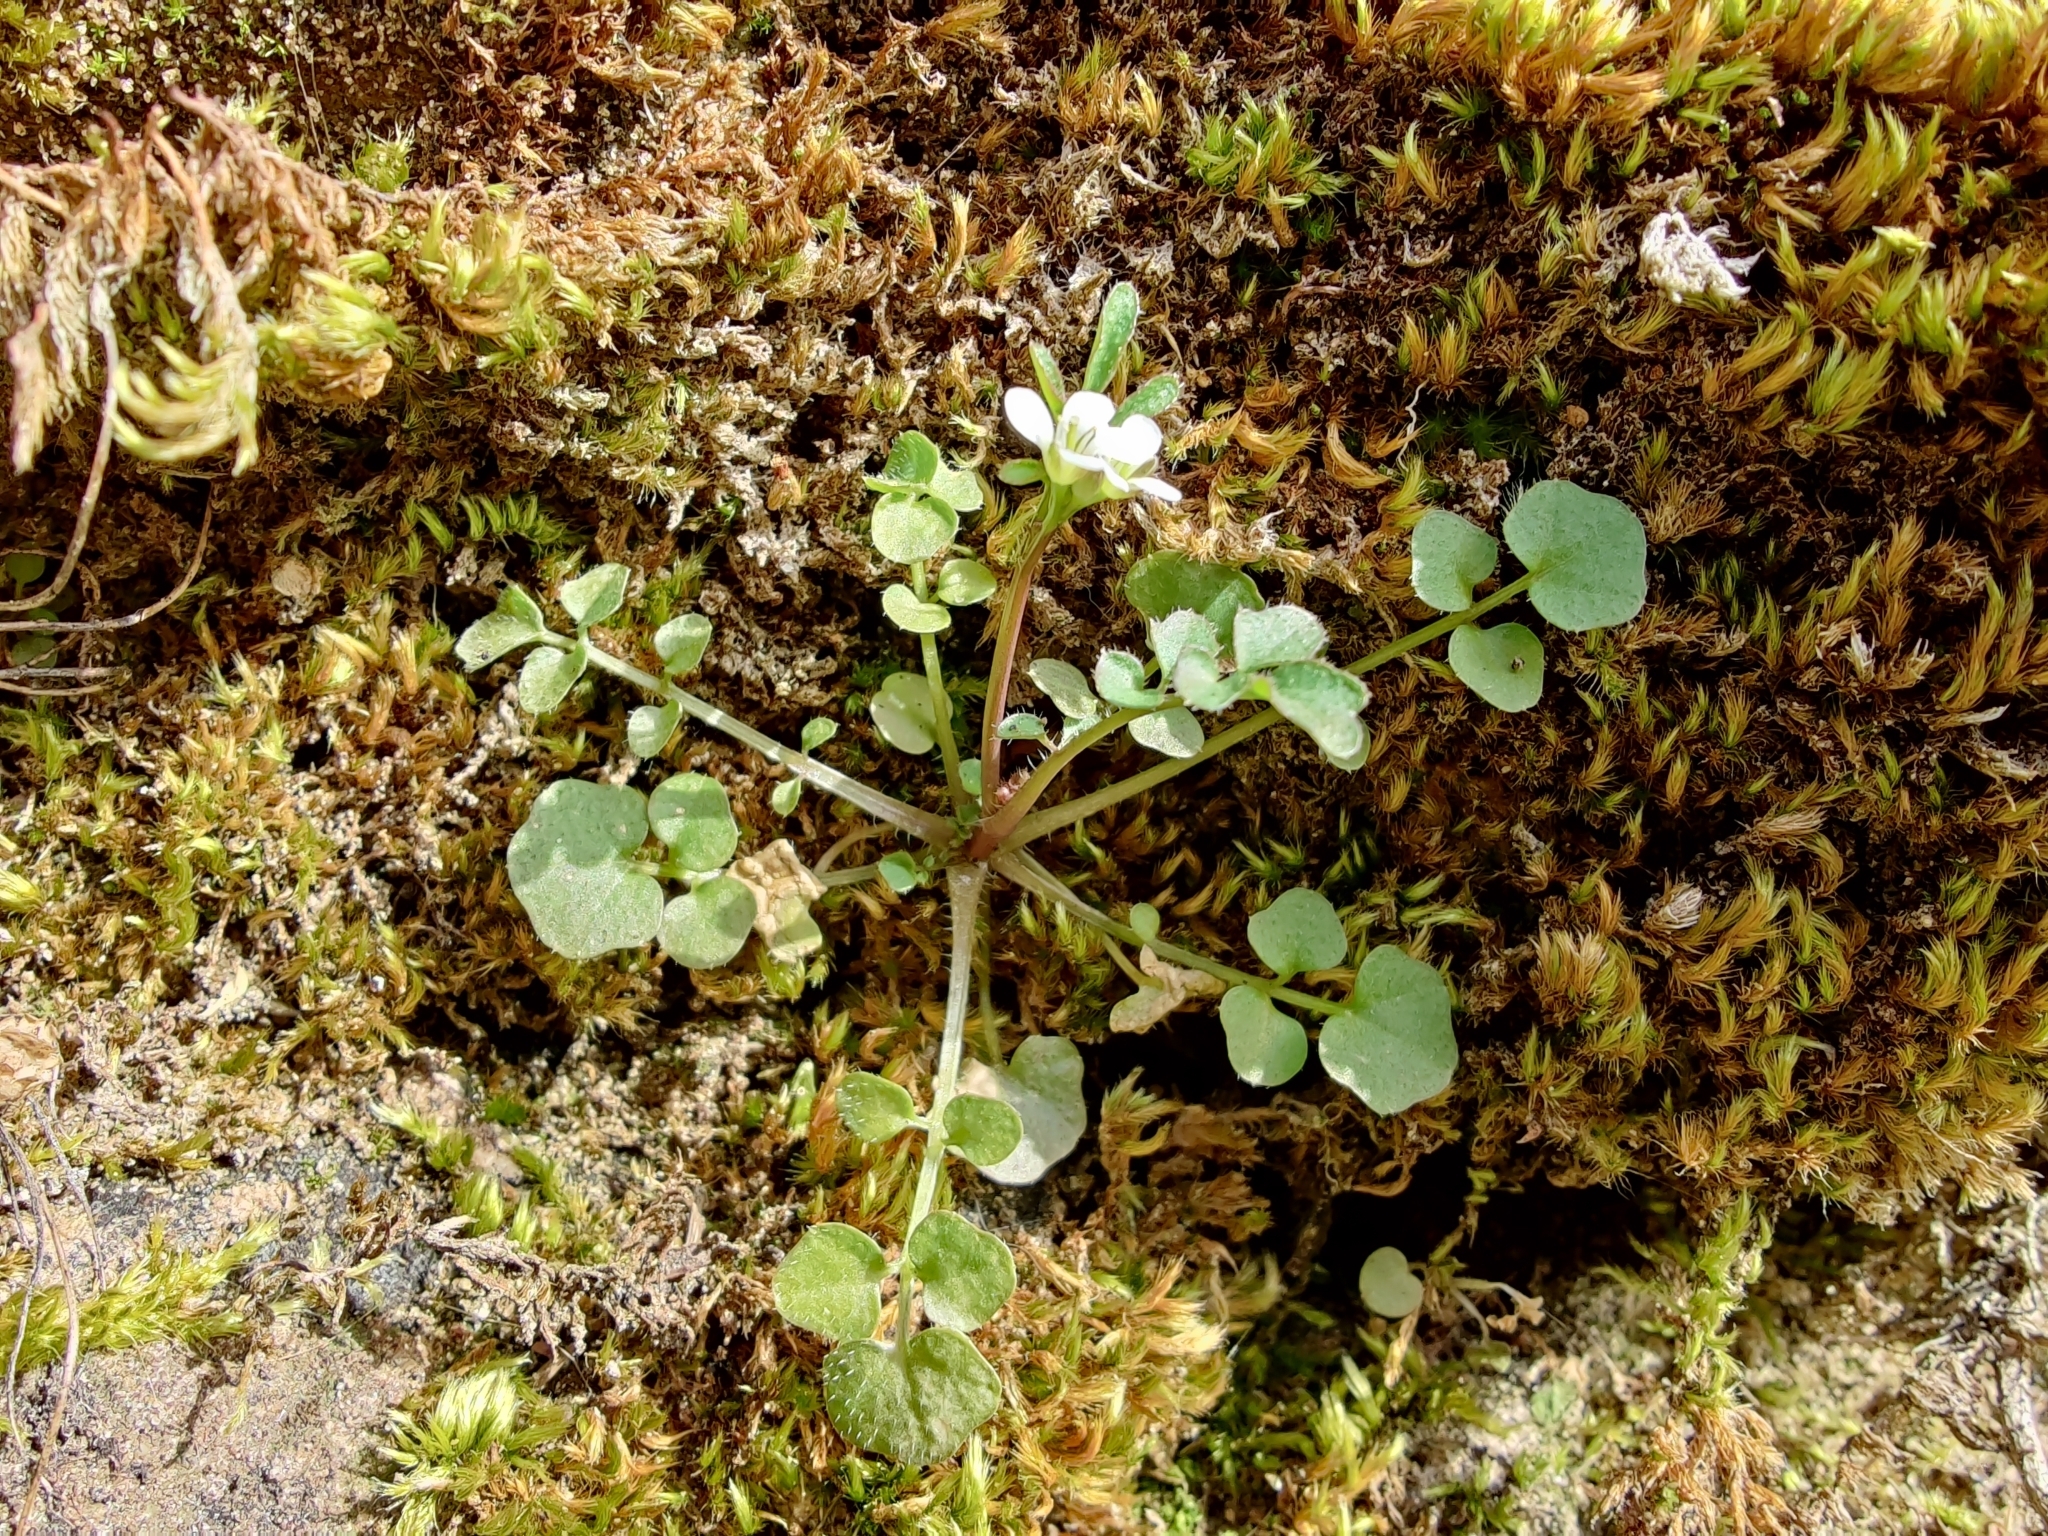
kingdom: Plantae
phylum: Tracheophyta
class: Magnoliopsida
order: Brassicales
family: Brassicaceae
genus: Cardamine
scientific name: Cardamine hirsuta
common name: Hairy bittercress
